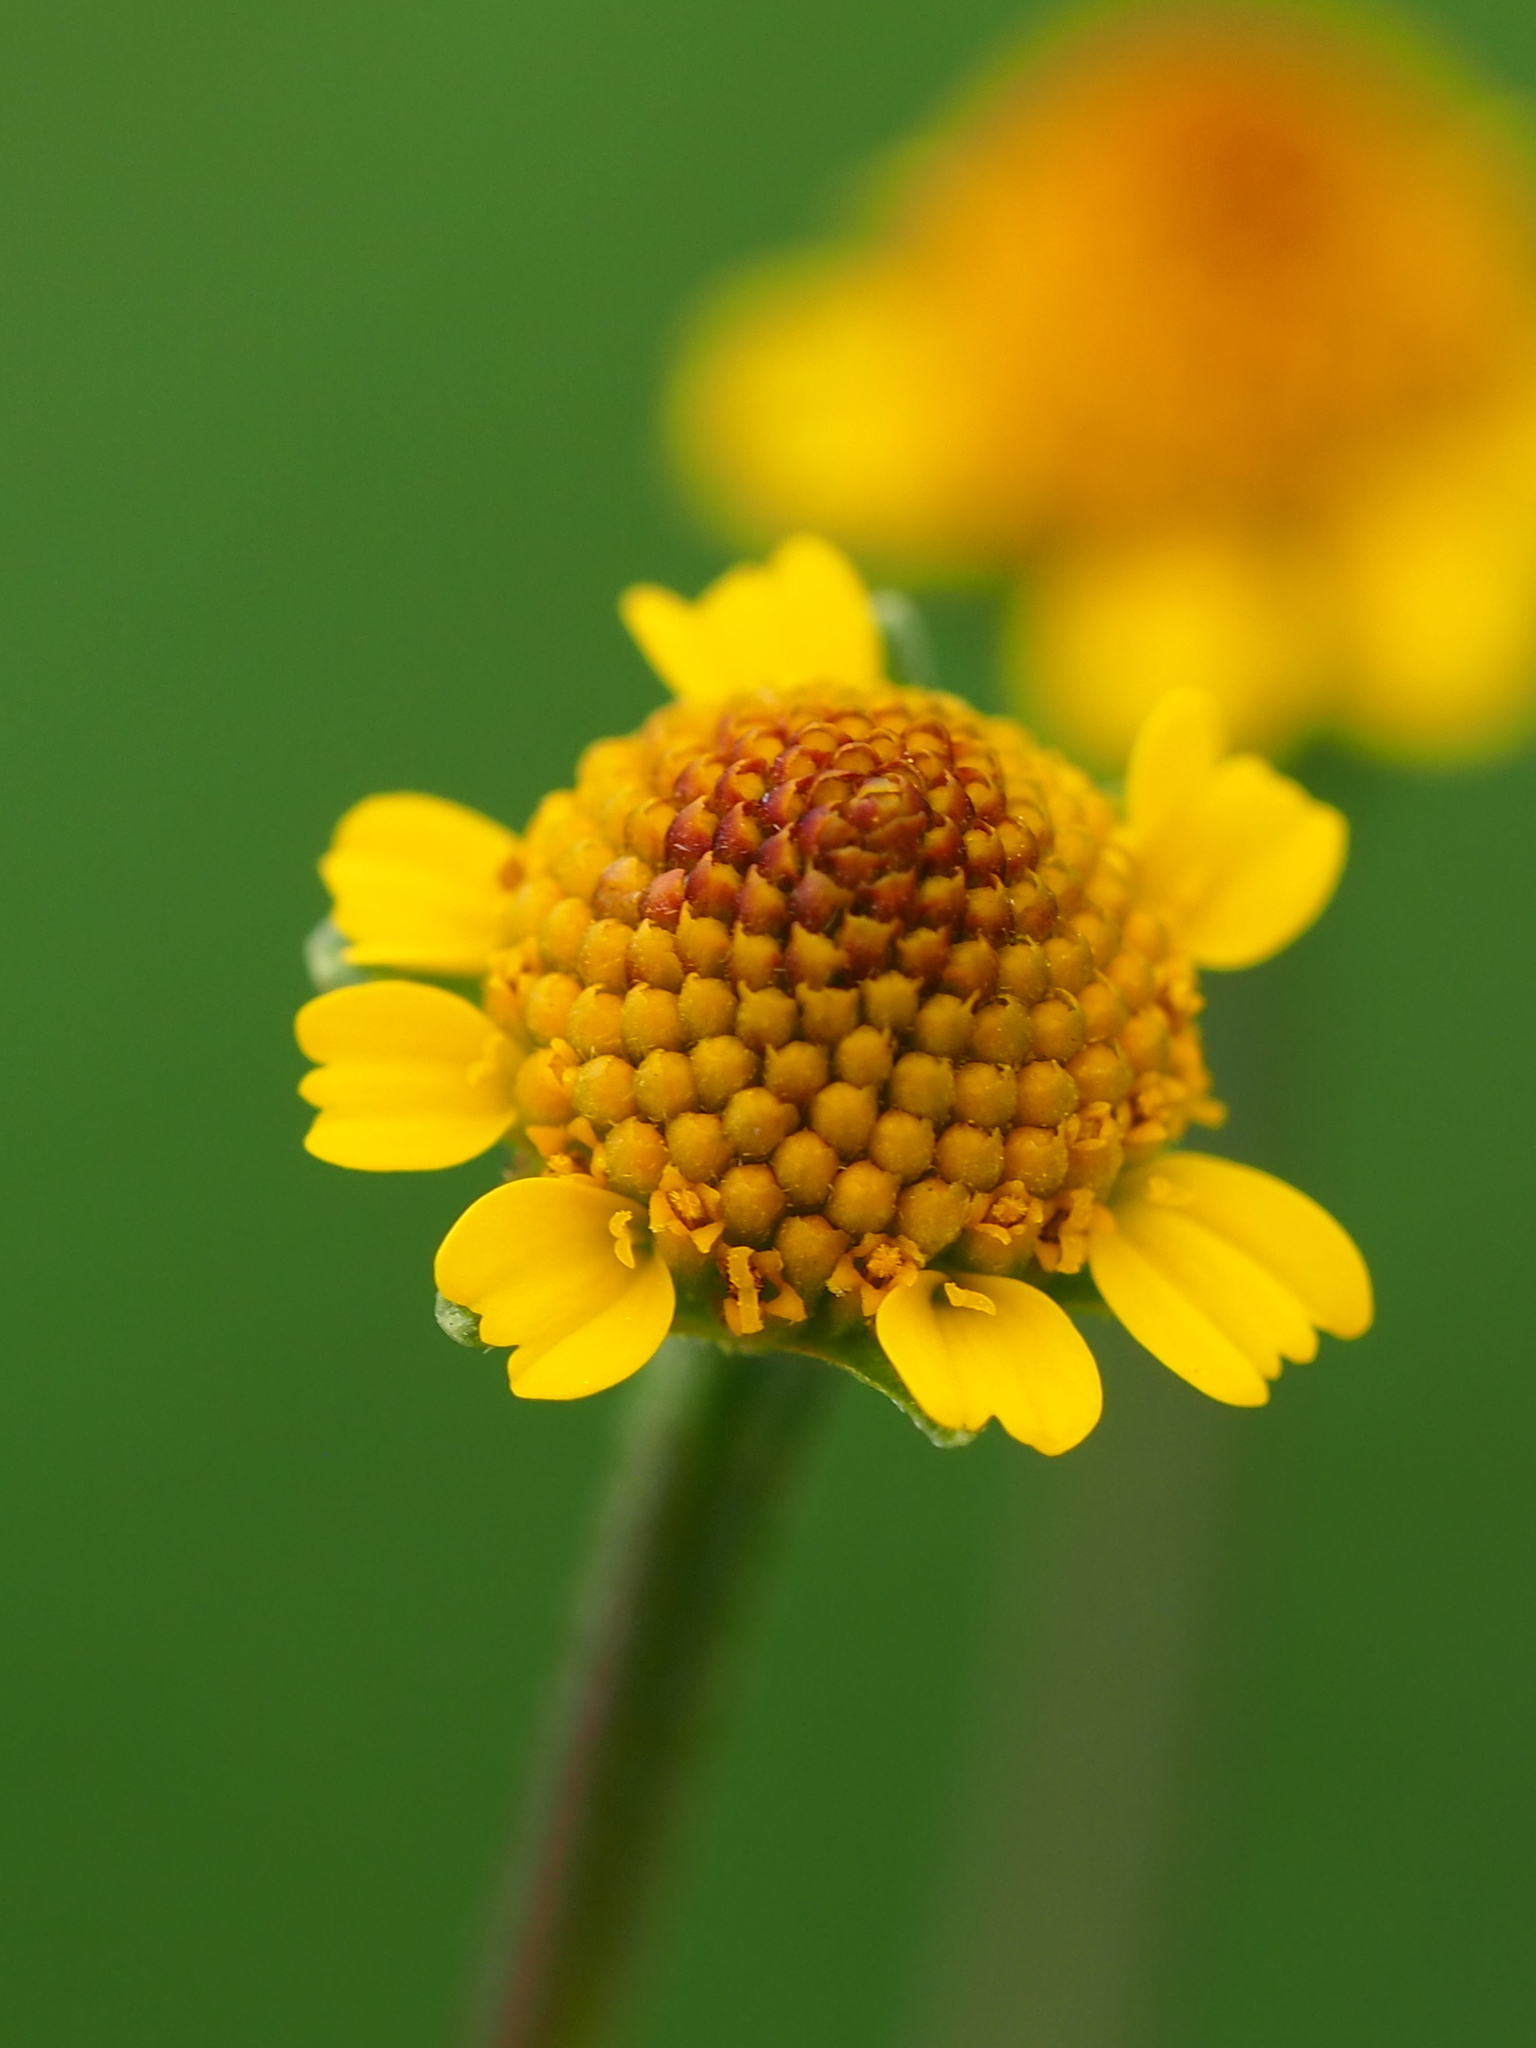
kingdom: Plantae
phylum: Tracheophyta
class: Magnoliopsida
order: Asterales
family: Asteraceae
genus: Acmella
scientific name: Acmella uliginosa
